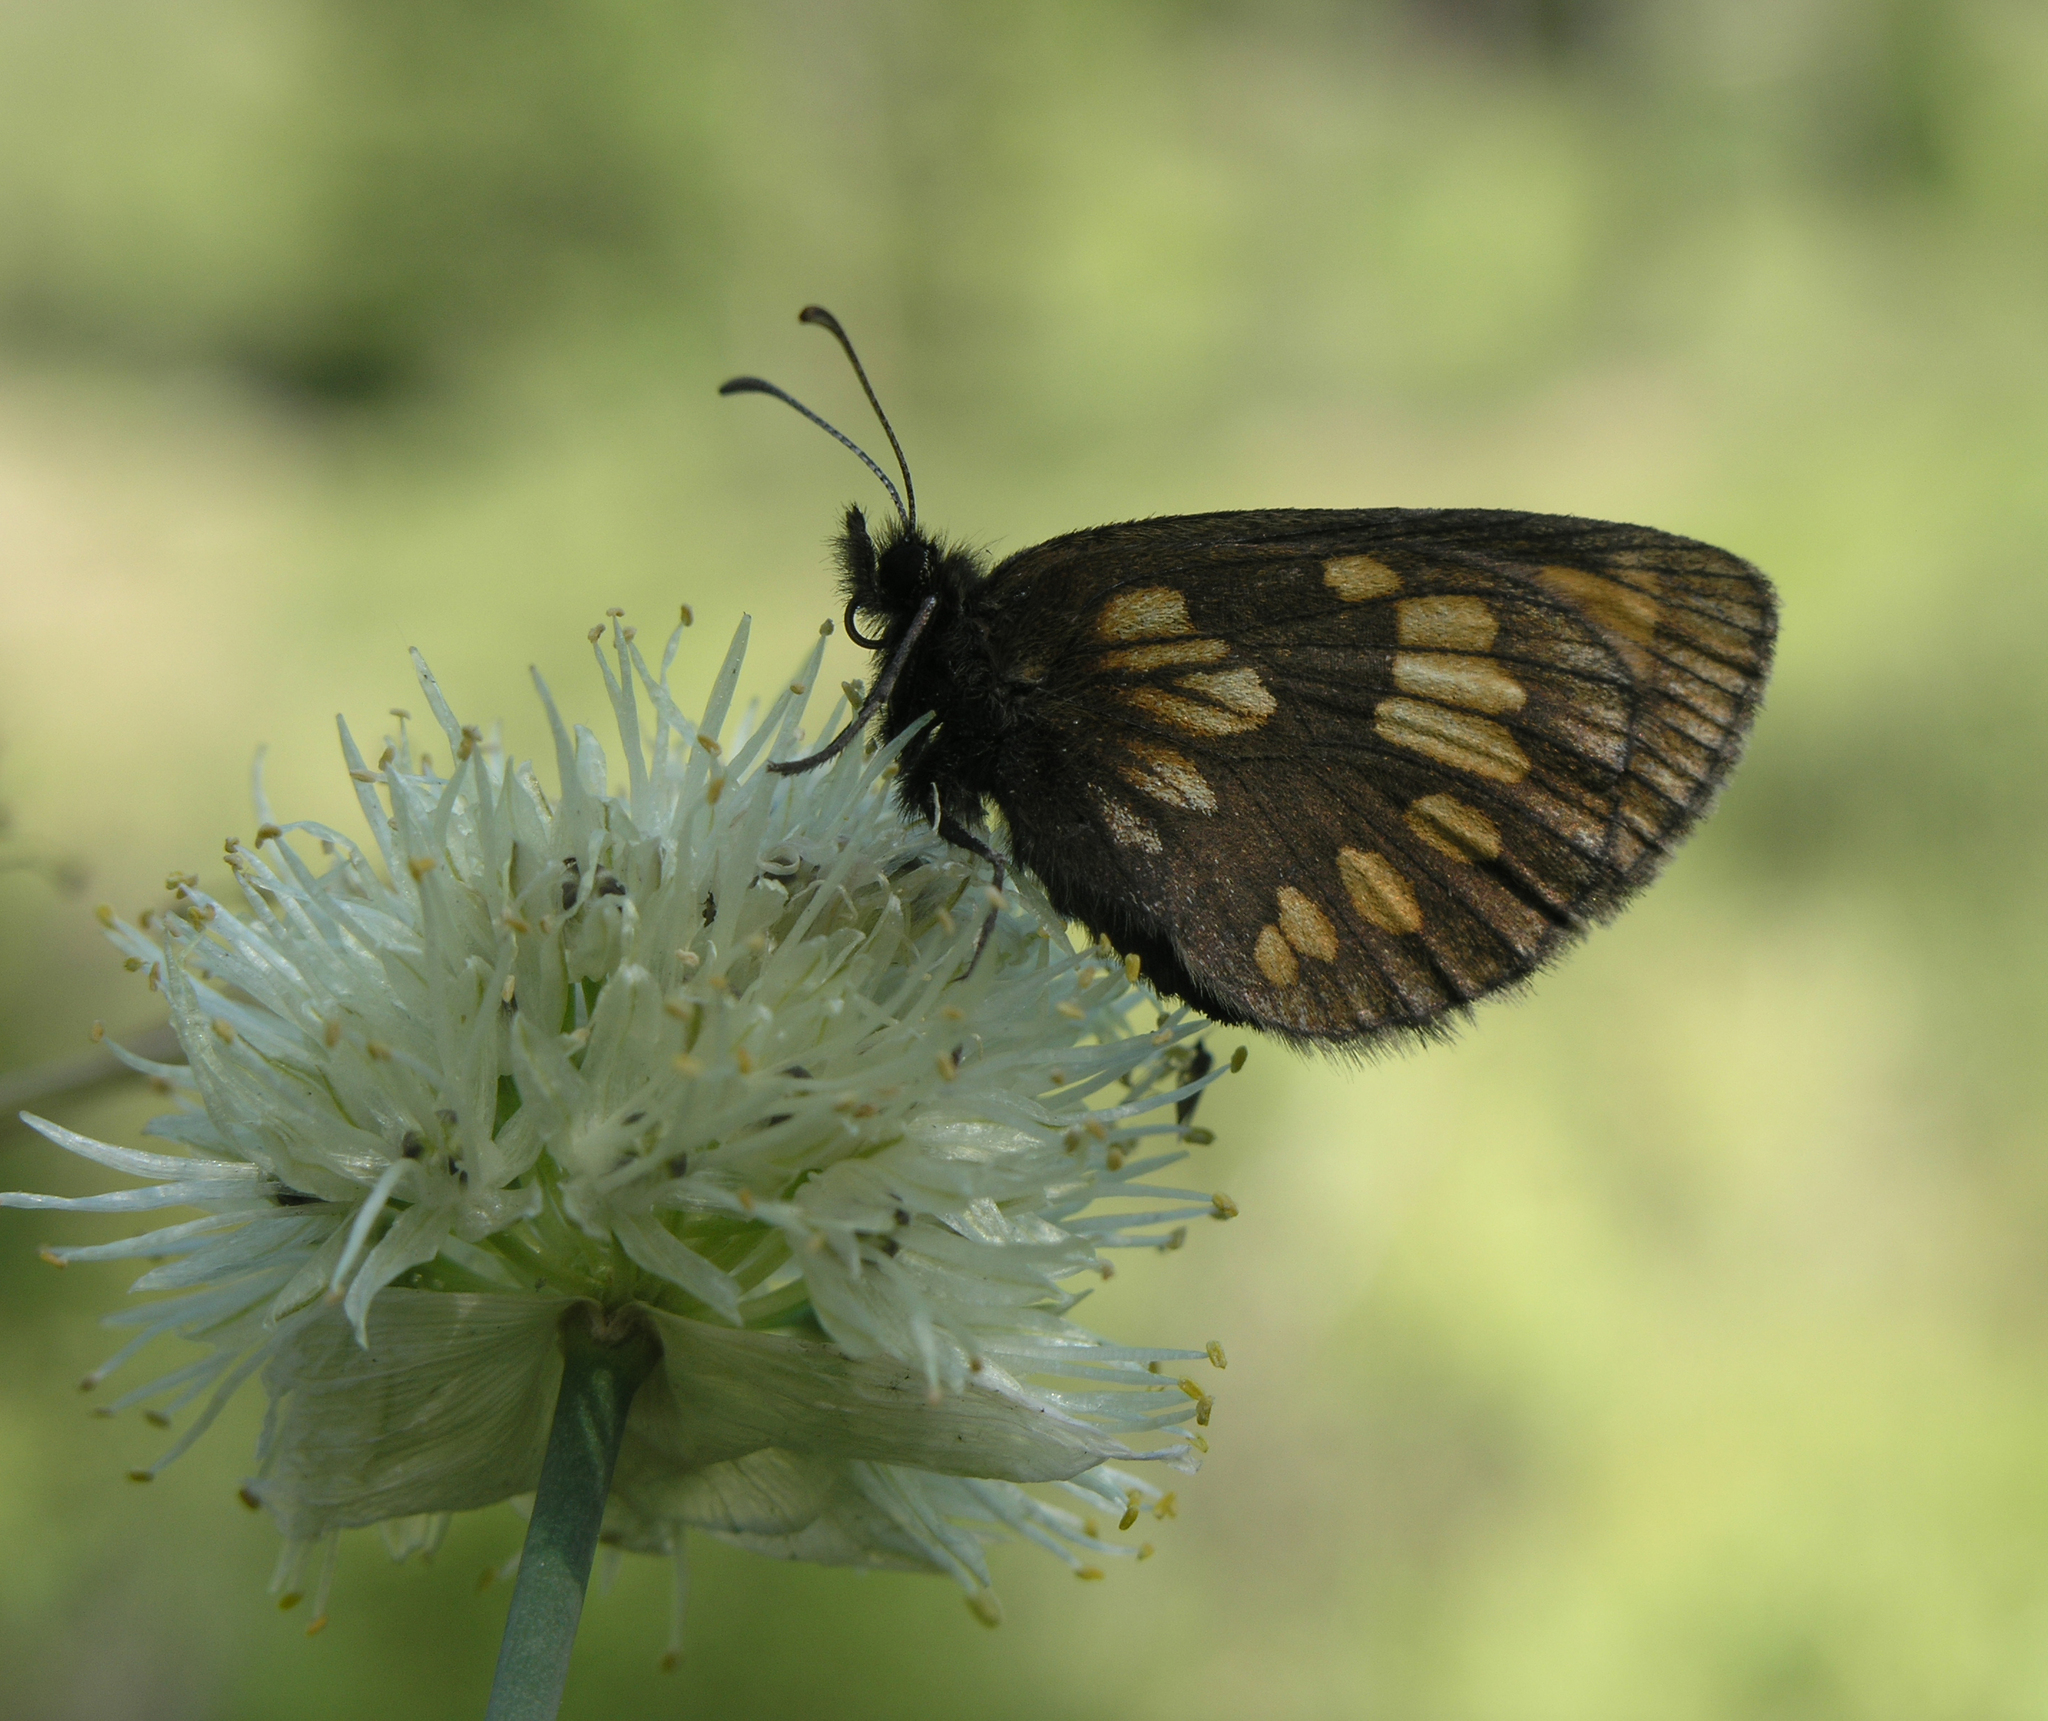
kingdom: Animalia
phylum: Arthropoda
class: Insecta
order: Lepidoptera
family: Nymphalidae
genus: Erebia
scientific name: Erebia maurisius
